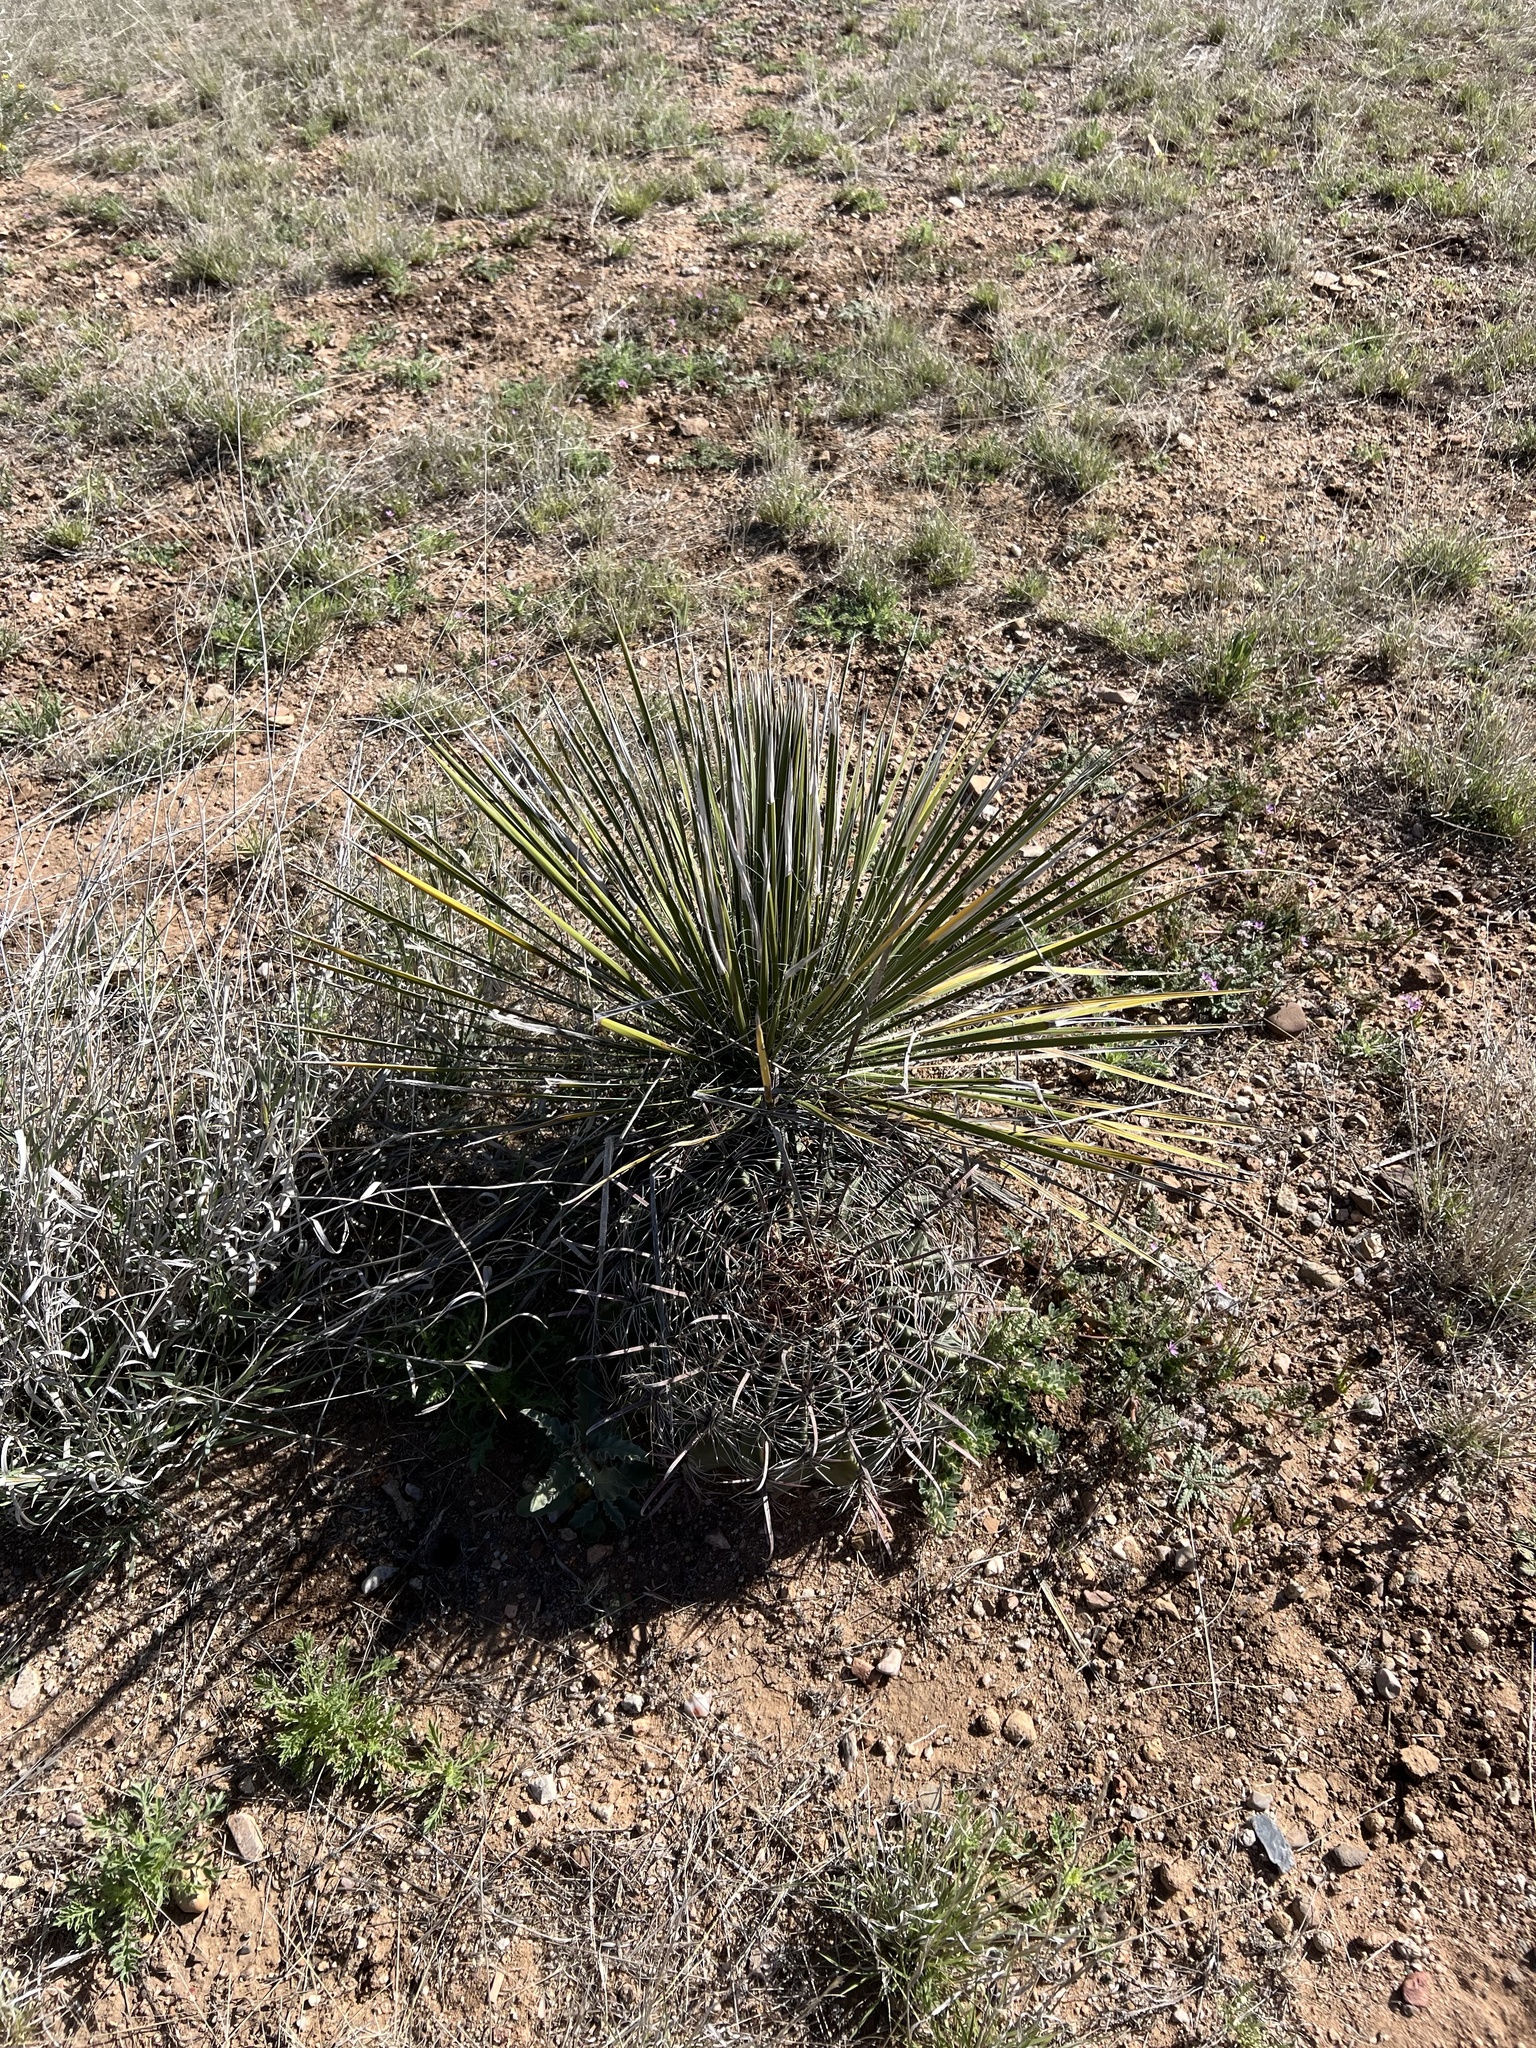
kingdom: Plantae
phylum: Tracheophyta
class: Liliopsida
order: Asparagales
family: Asparagaceae
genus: Yucca
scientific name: Yucca elata
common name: Palmella
